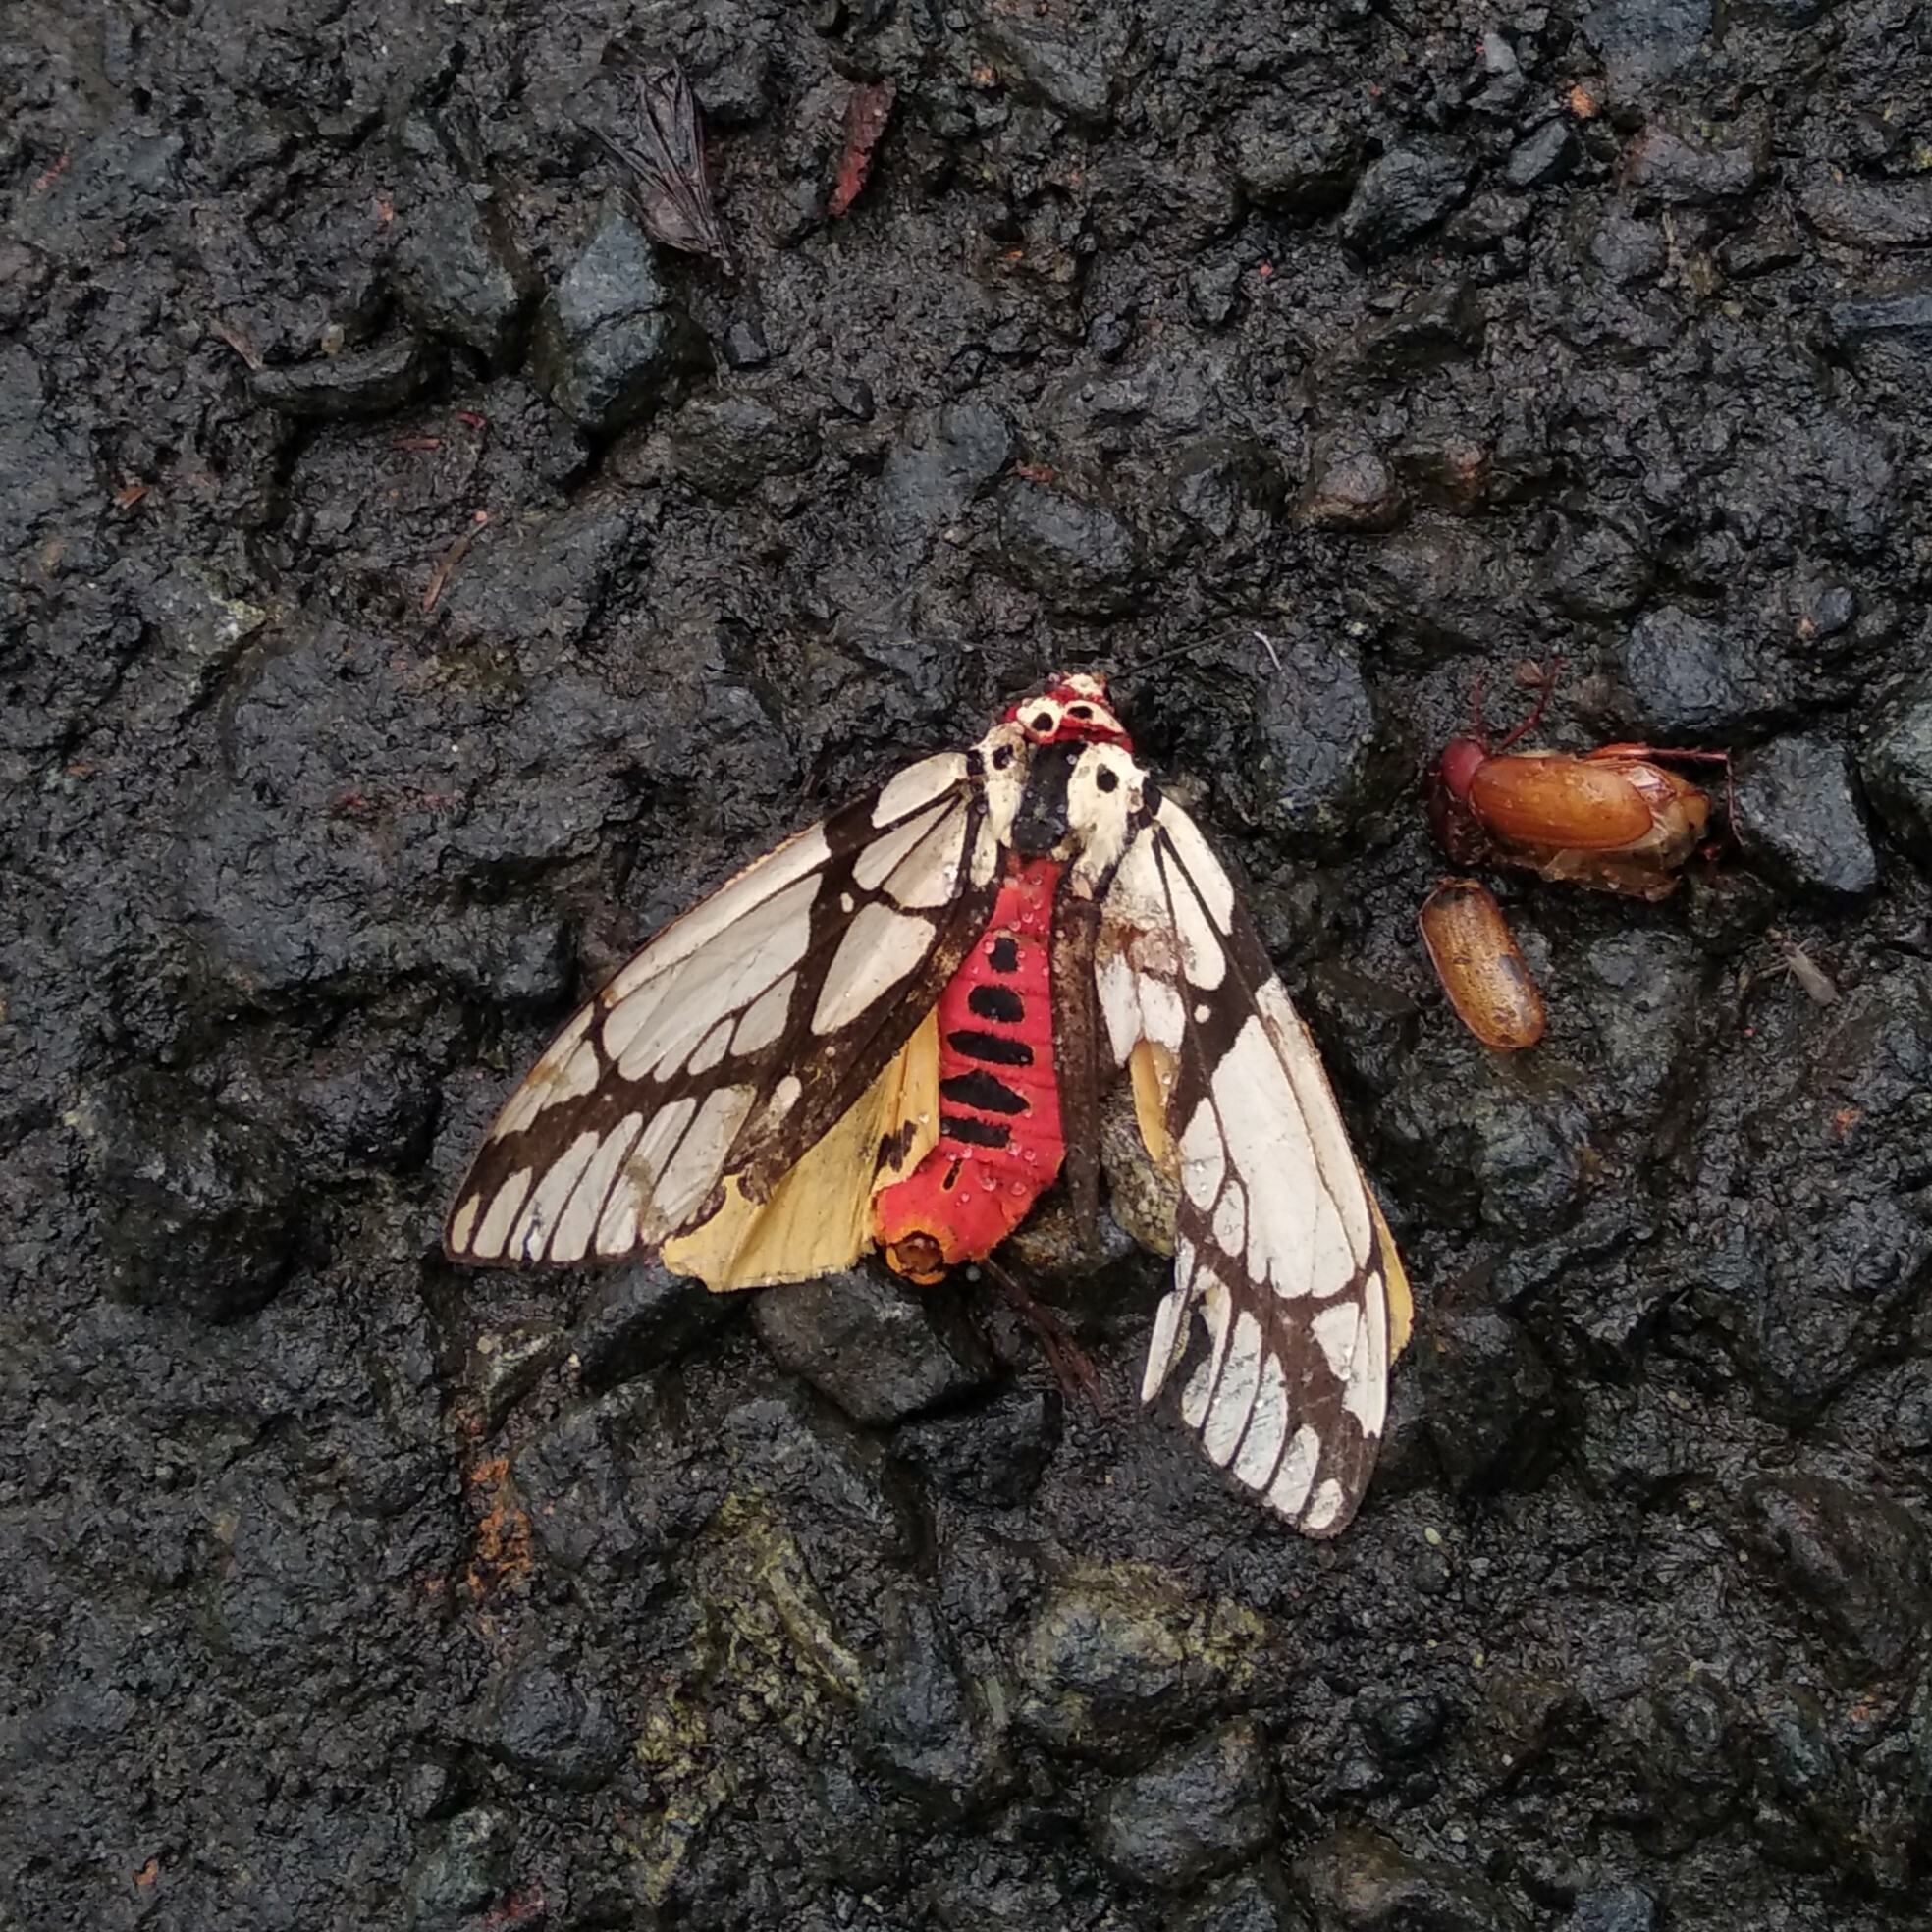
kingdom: Animalia
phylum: Arthropoda
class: Insecta
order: Lepidoptera
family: Erebidae
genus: Areas
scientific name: Areas galactina
